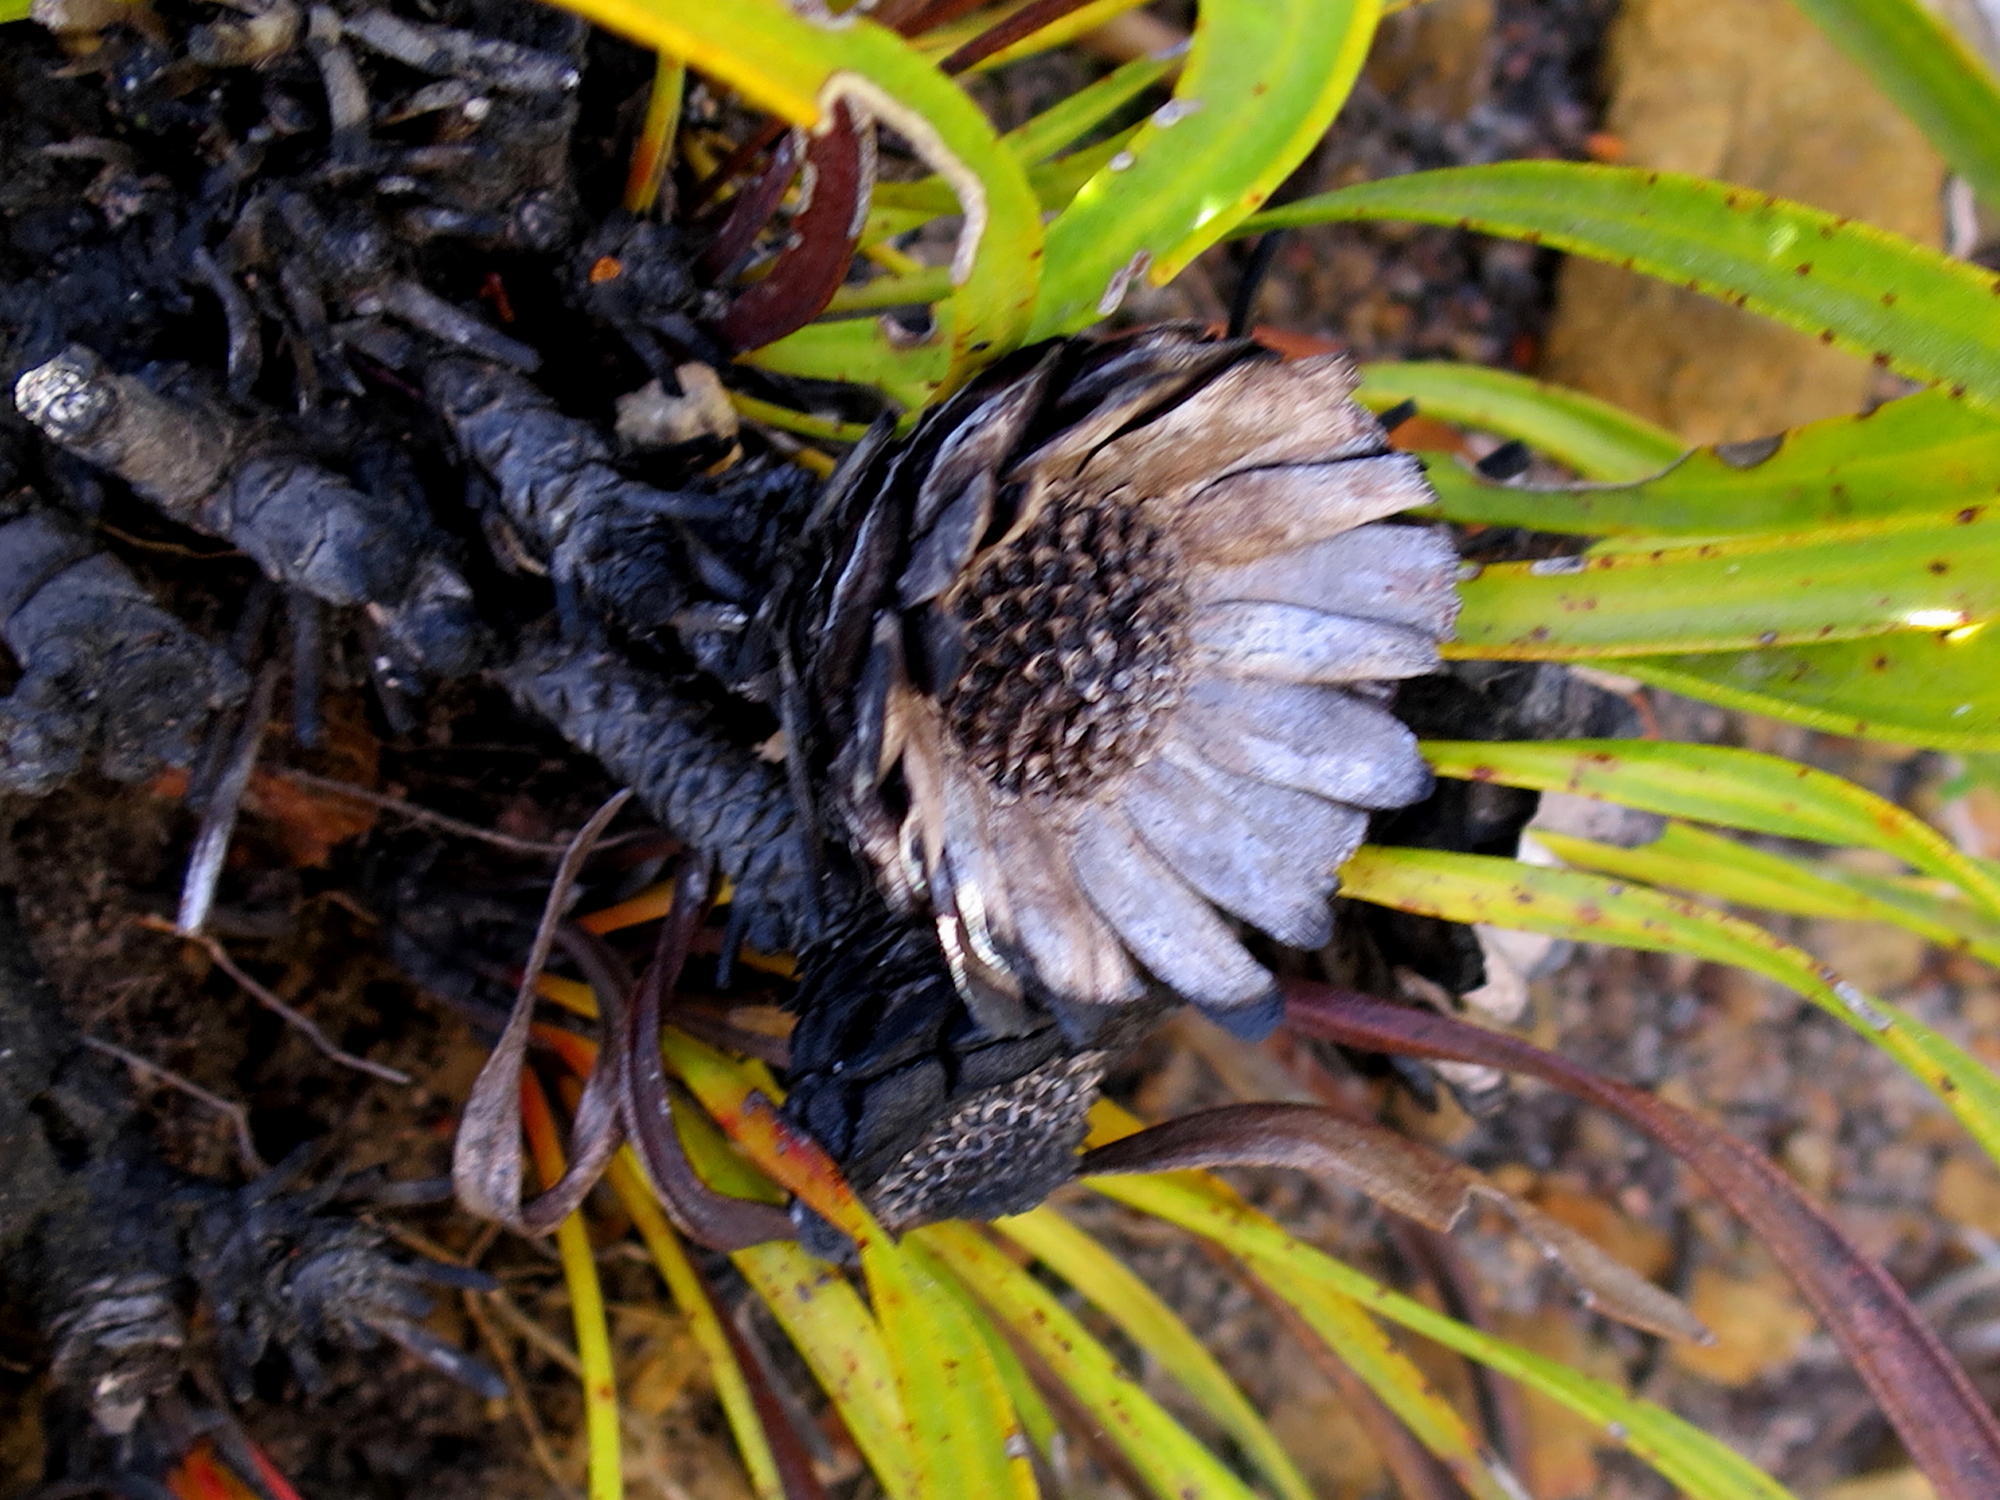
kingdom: Plantae
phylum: Tracheophyta
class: Magnoliopsida
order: Proteales
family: Proteaceae
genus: Protea
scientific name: Protea scabra
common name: Sandpaper-leaf sugarbush
